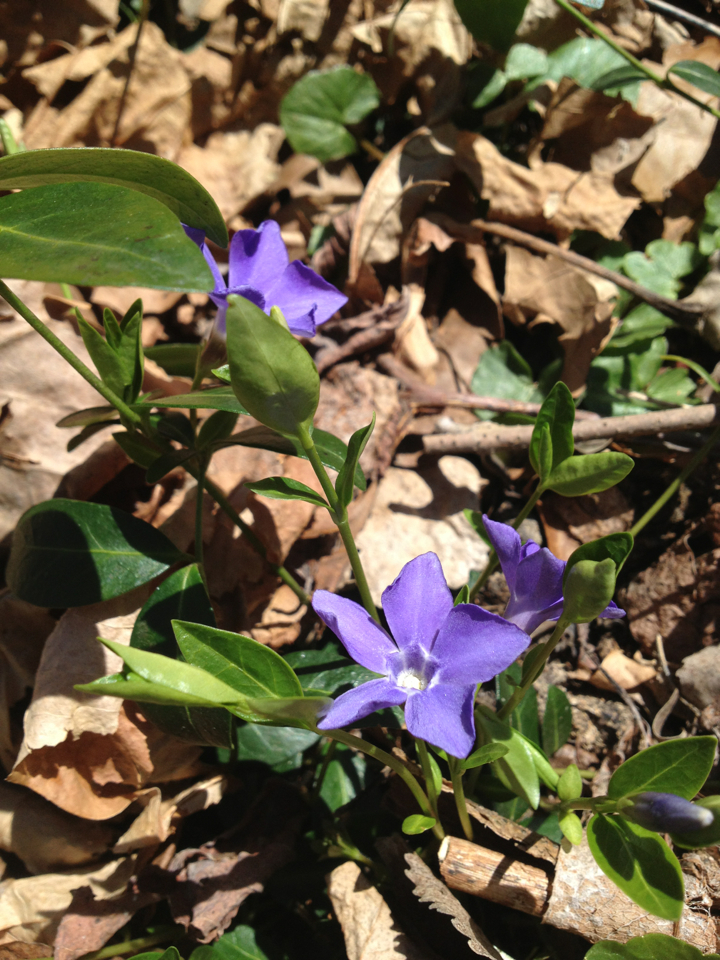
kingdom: Plantae
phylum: Tracheophyta
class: Magnoliopsida
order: Gentianales
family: Apocynaceae
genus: Vinca
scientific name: Vinca minor
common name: Lesser periwinkle
